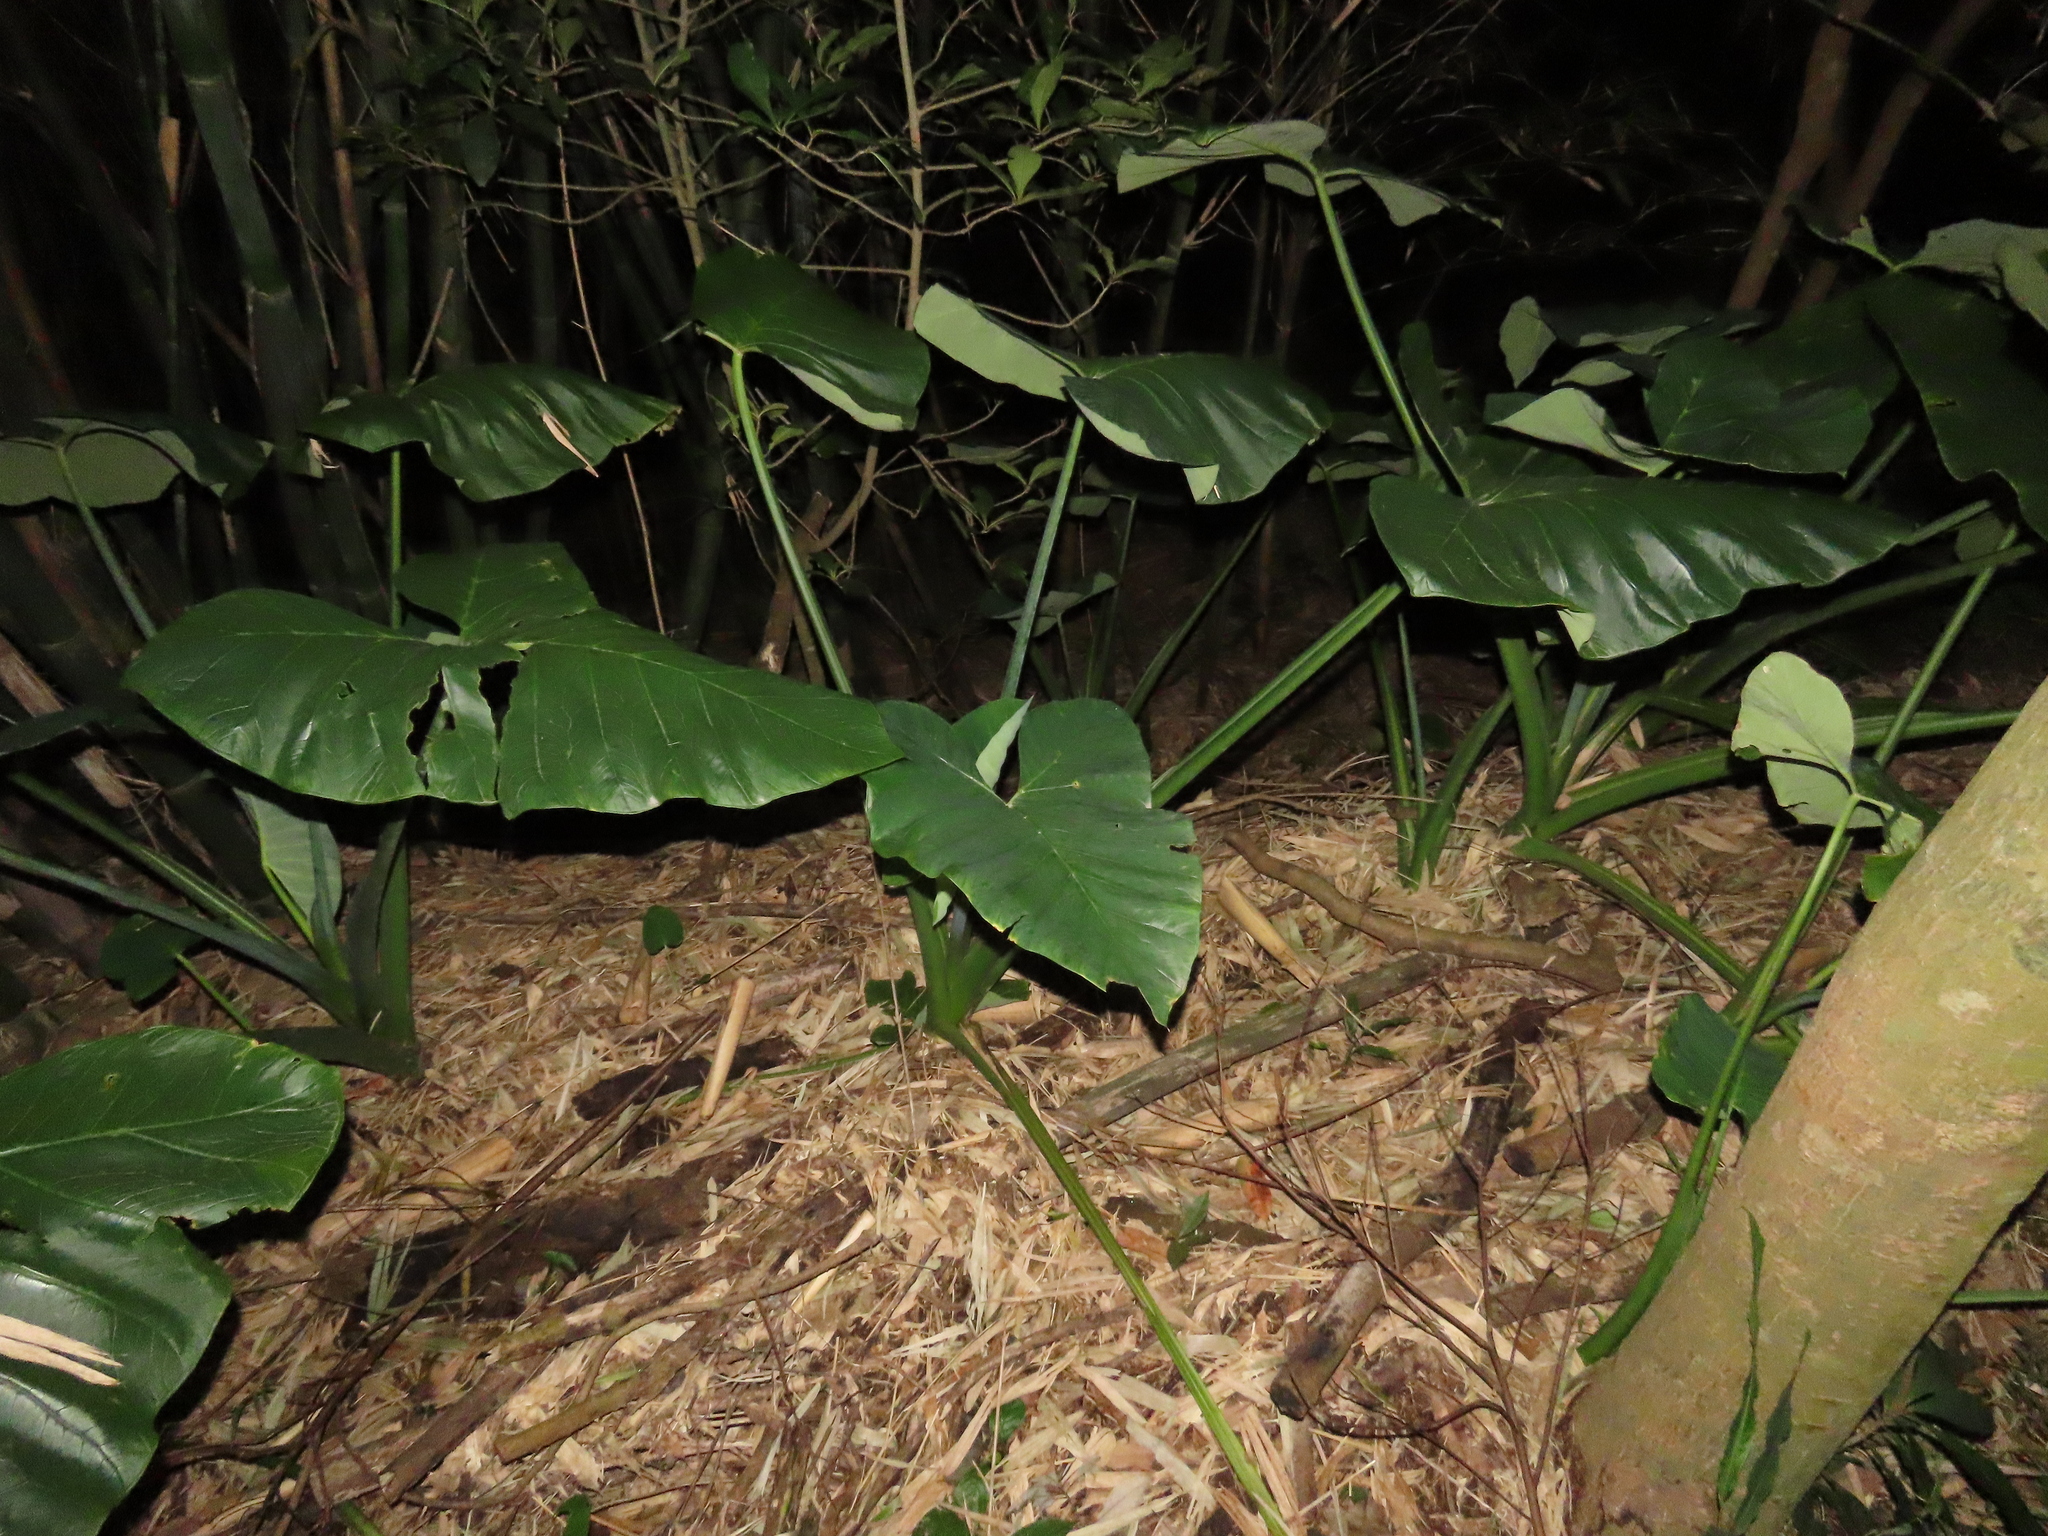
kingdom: Plantae
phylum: Tracheophyta
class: Liliopsida
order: Alismatales
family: Araceae
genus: Xanthosoma
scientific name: Xanthosoma sagittifolium
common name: Arrowleaf elephant's ear
